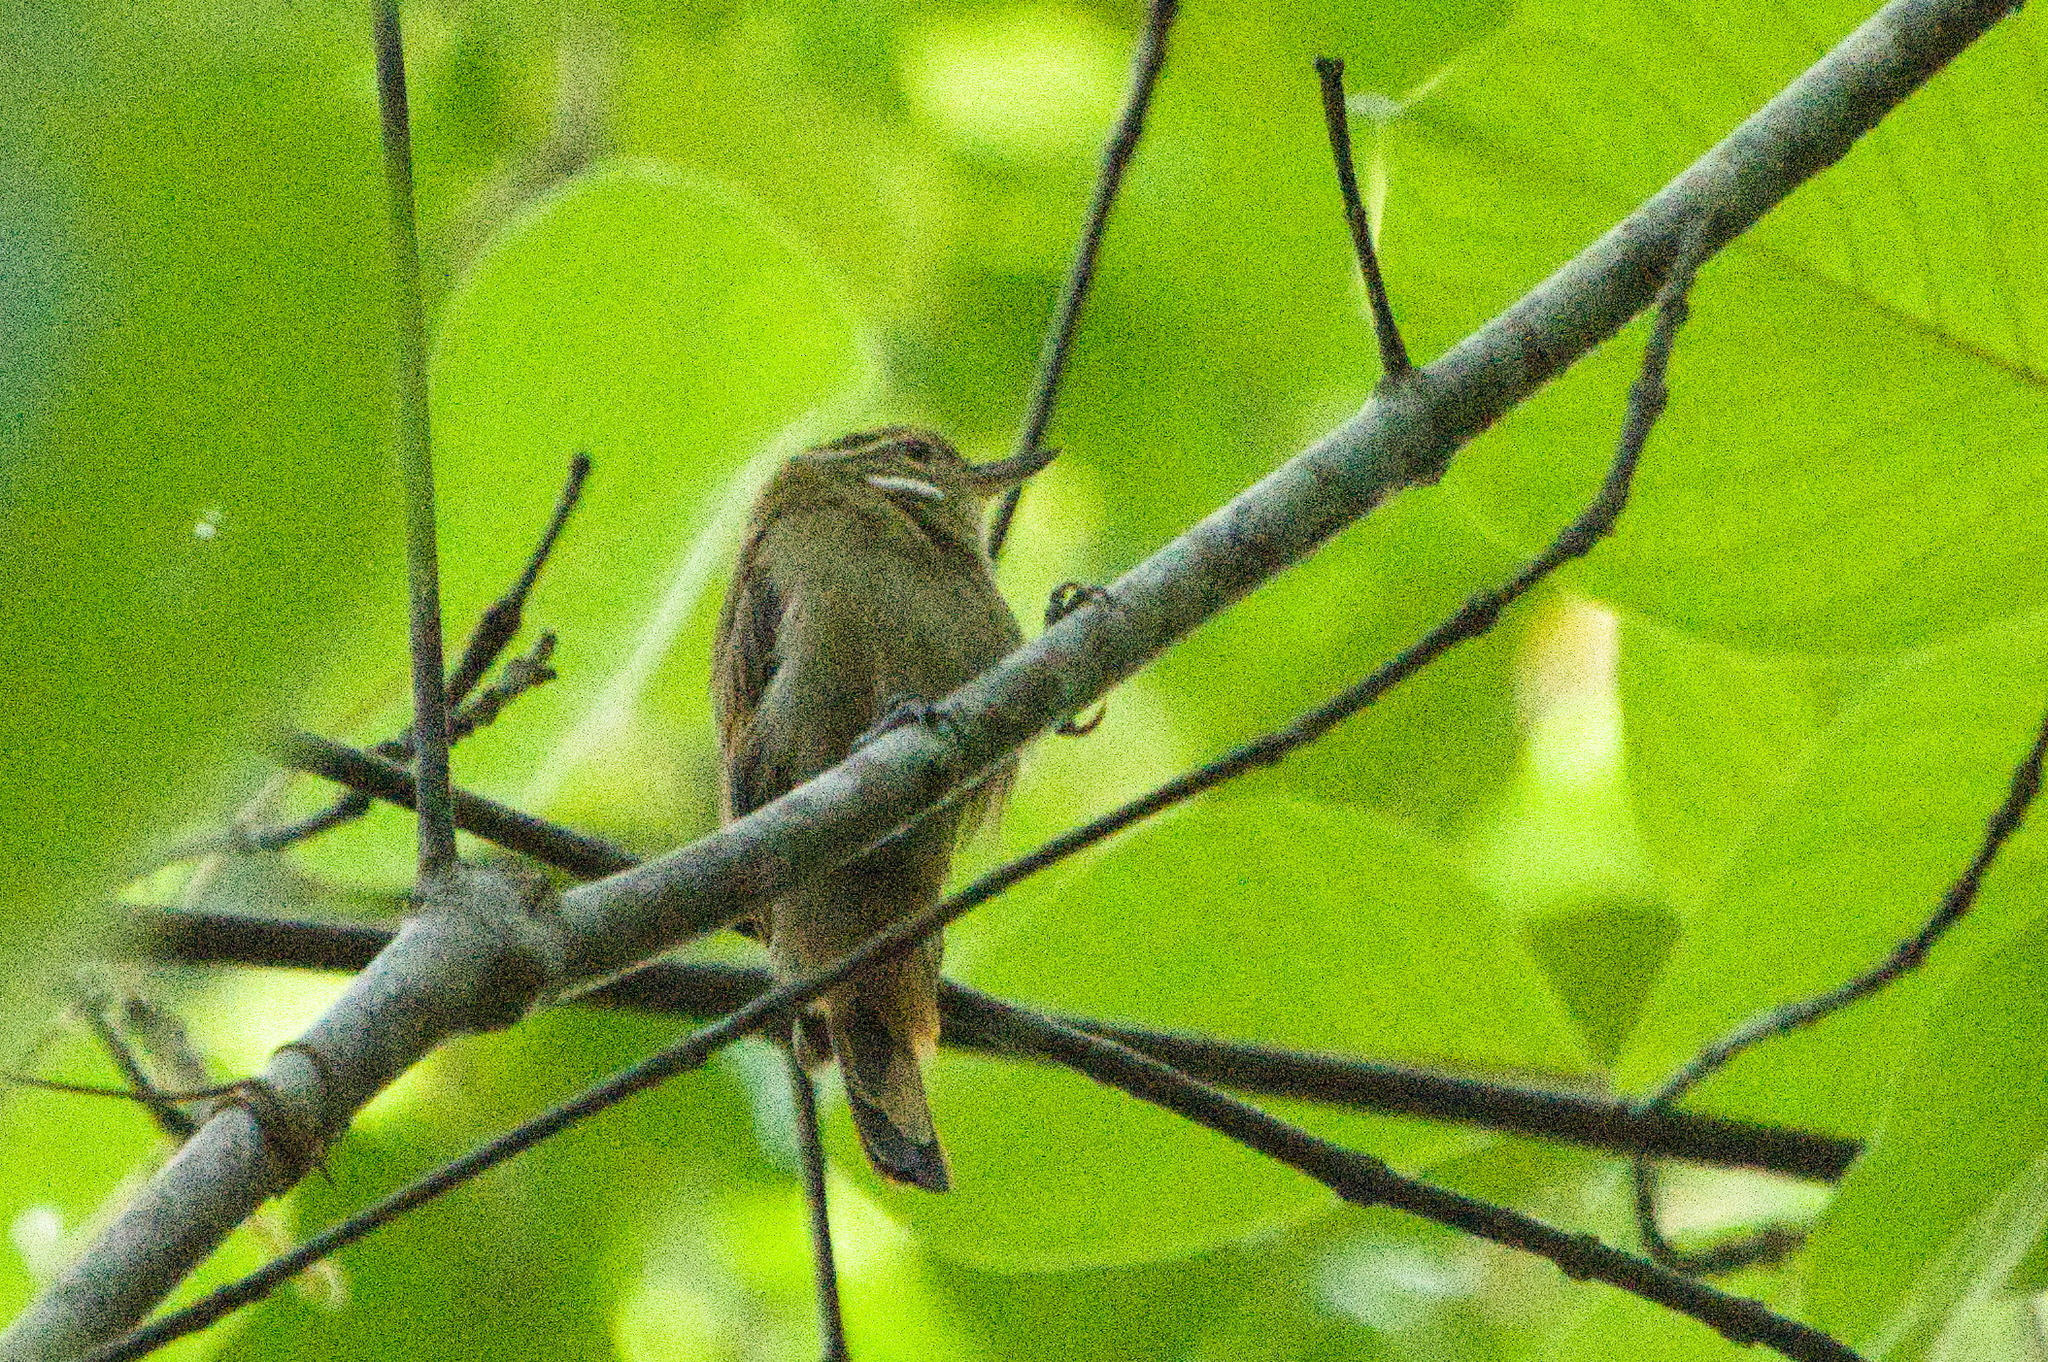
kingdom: Animalia
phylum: Chordata
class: Aves
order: Passeriformes
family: Furnariidae
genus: Xenops
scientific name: Xenops minutus
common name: Plain xenops
